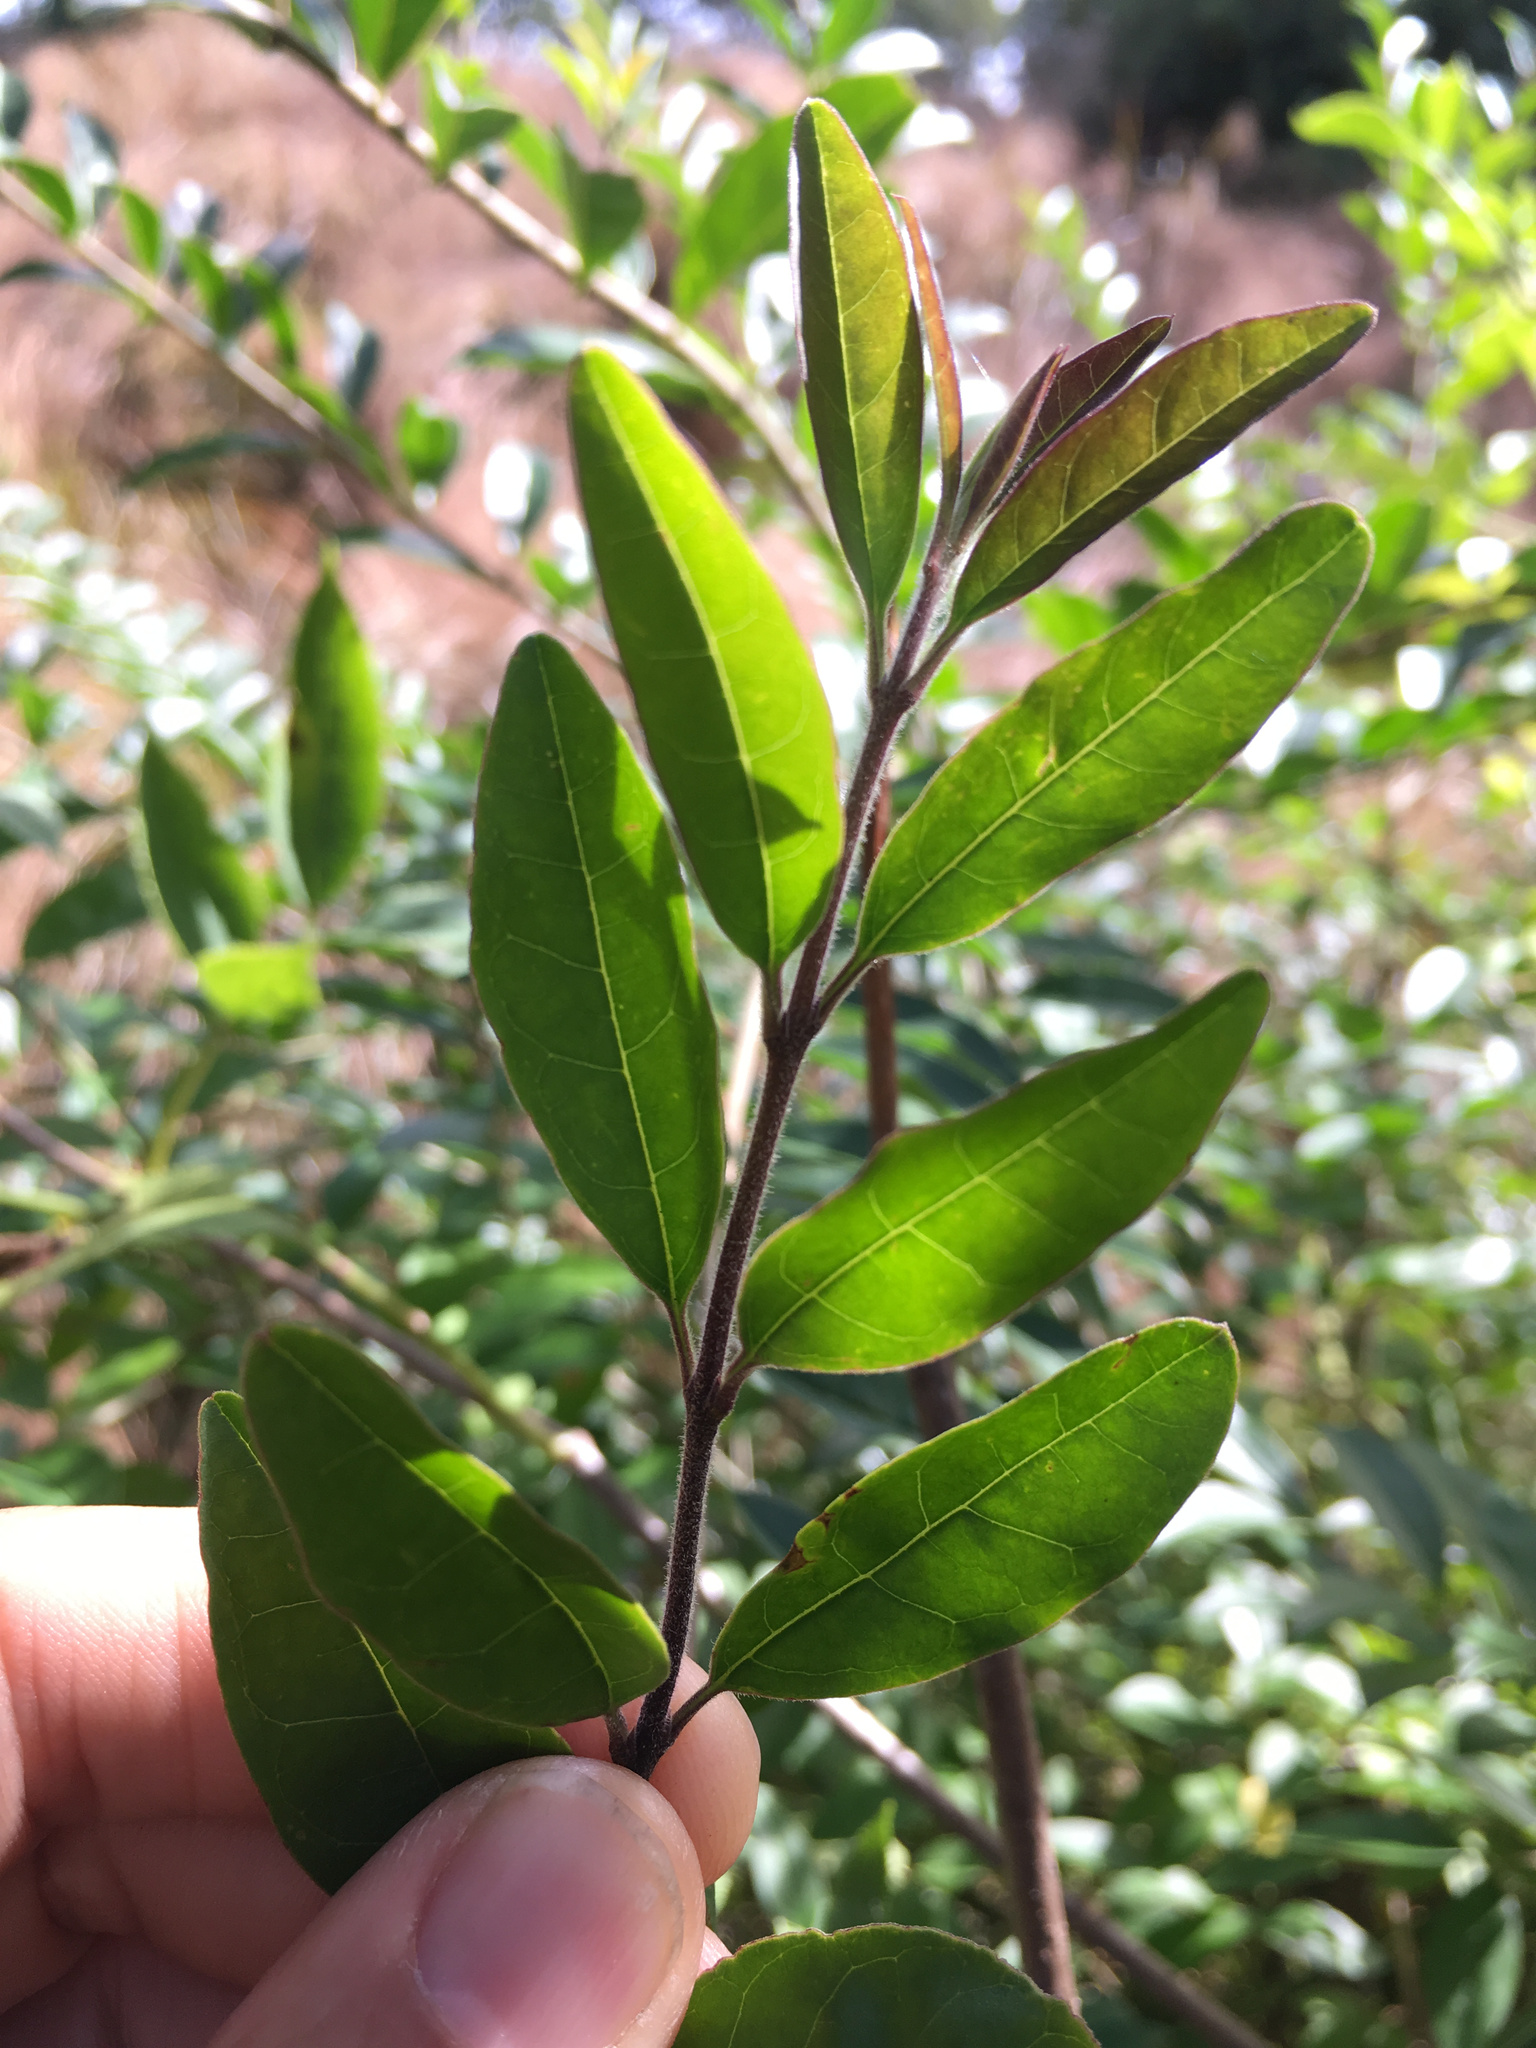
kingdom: Plantae
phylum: Tracheophyta
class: Magnoliopsida
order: Lamiales
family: Oleaceae
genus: Ligustrum
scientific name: Ligustrum sinense
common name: Chinese privet
